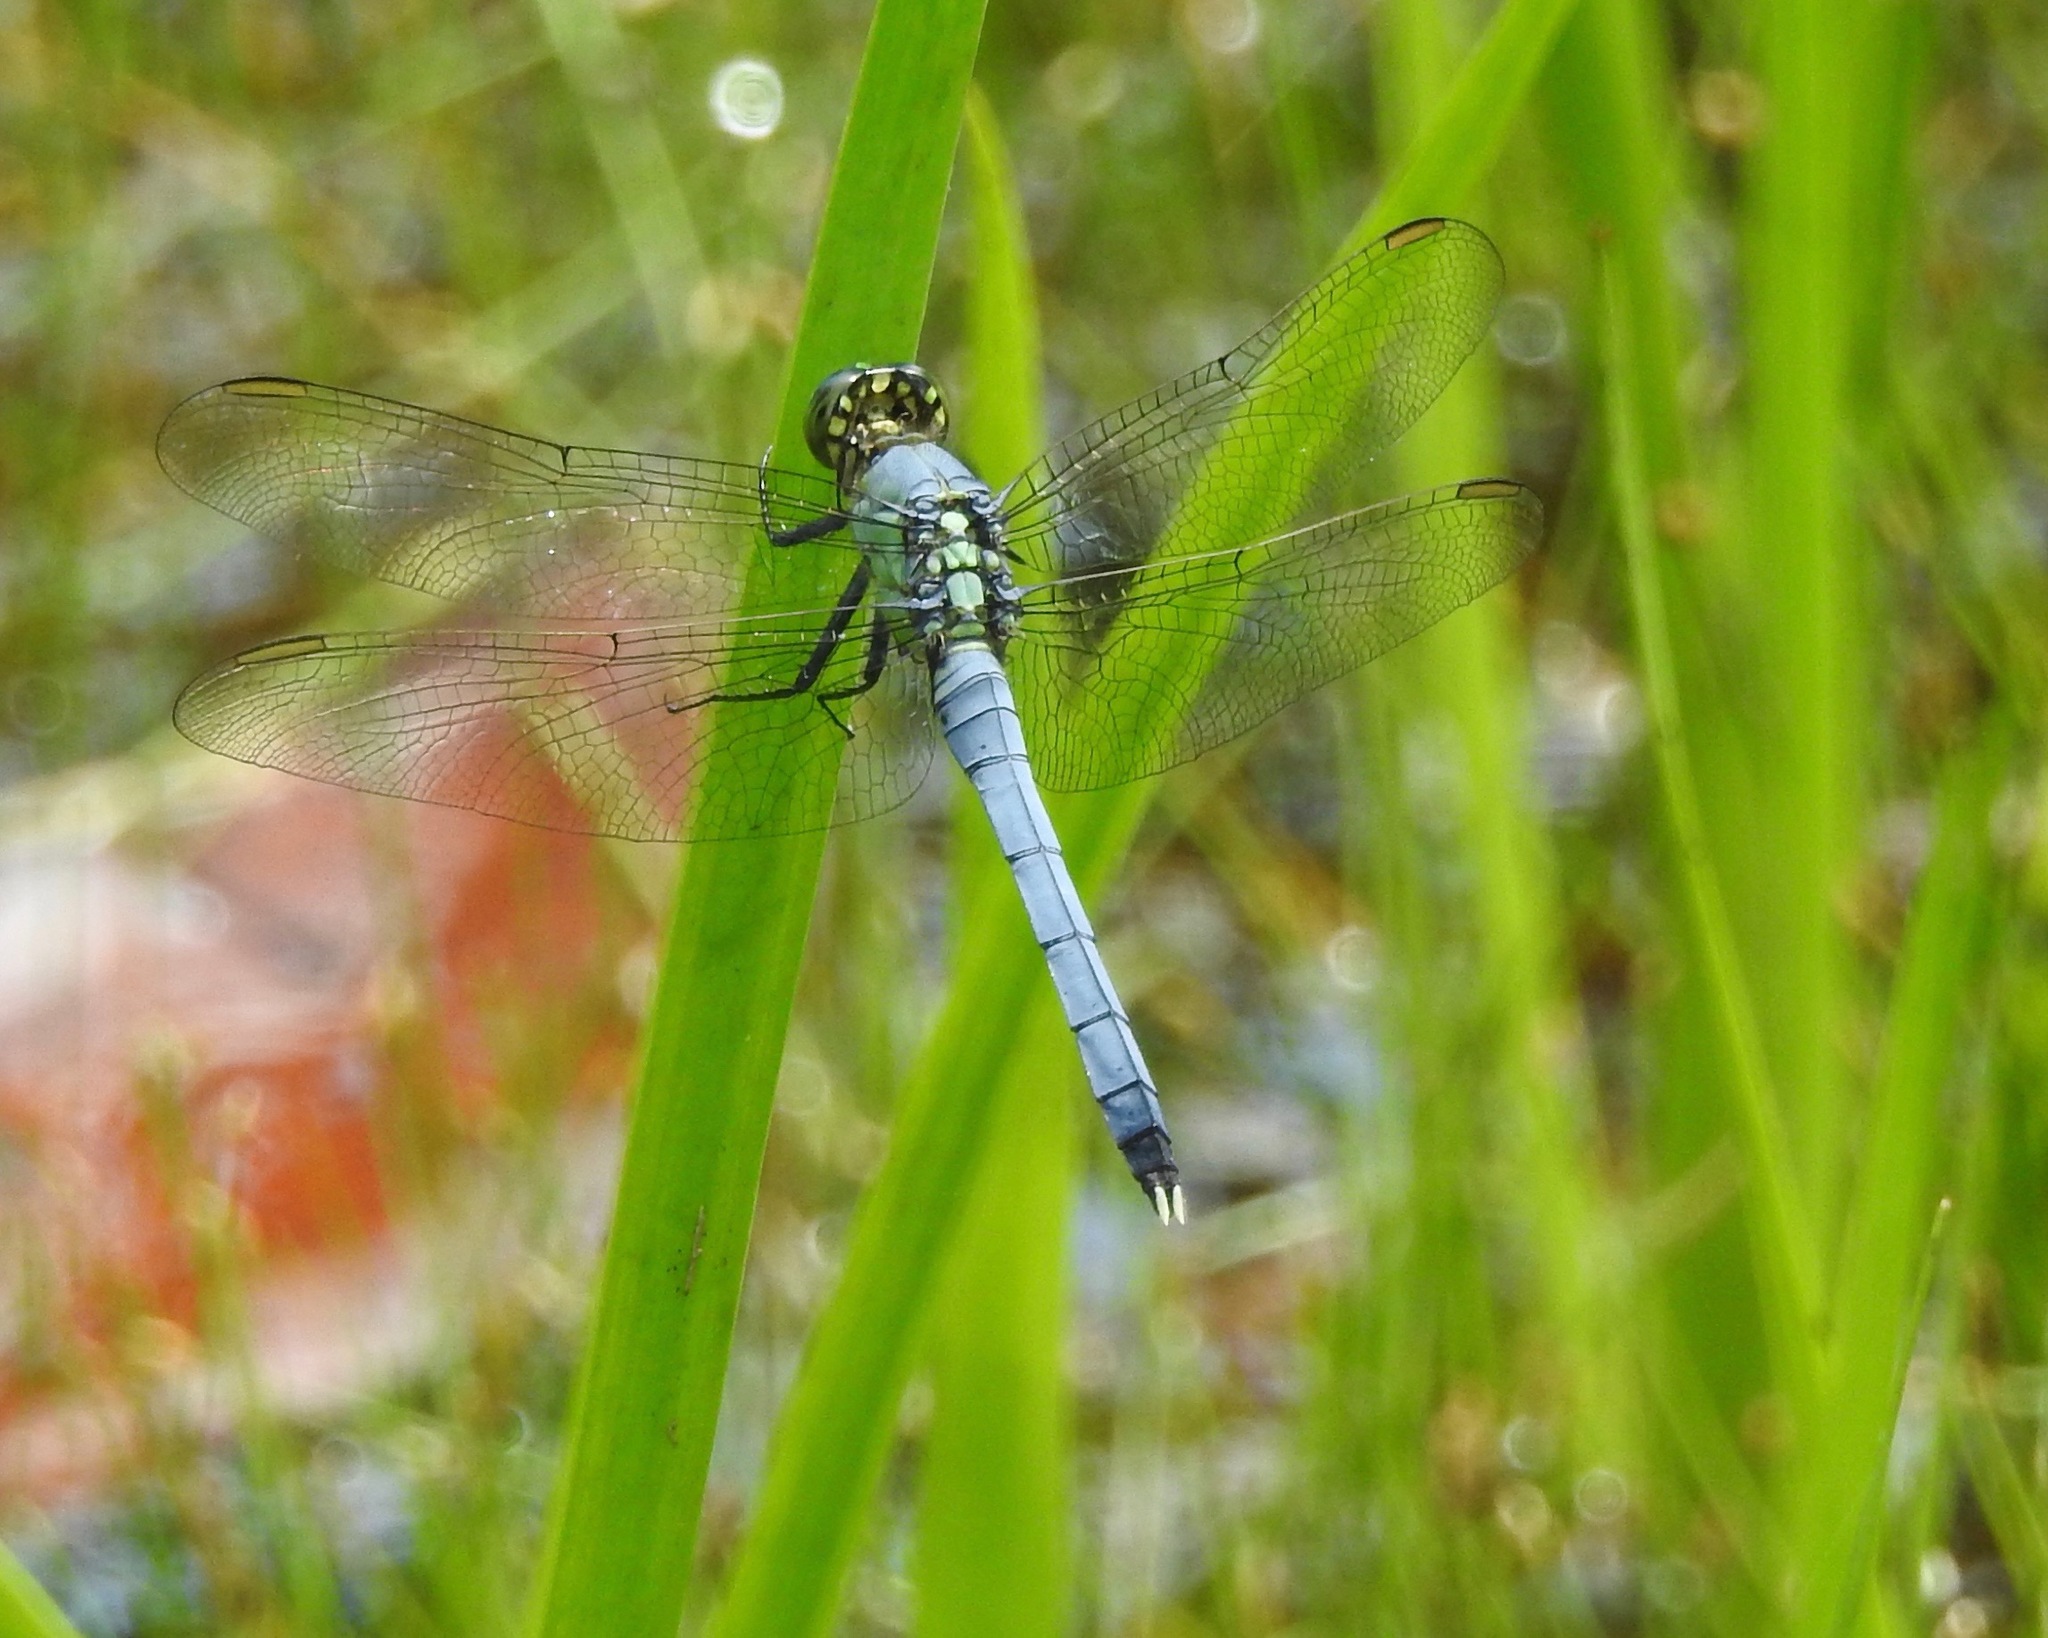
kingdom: Animalia
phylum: Arthropoda
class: Insecta
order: Odonata
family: Libellulidae
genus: Erythemis
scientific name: Erythemis simplicicollis
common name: Eastern pondhawk
